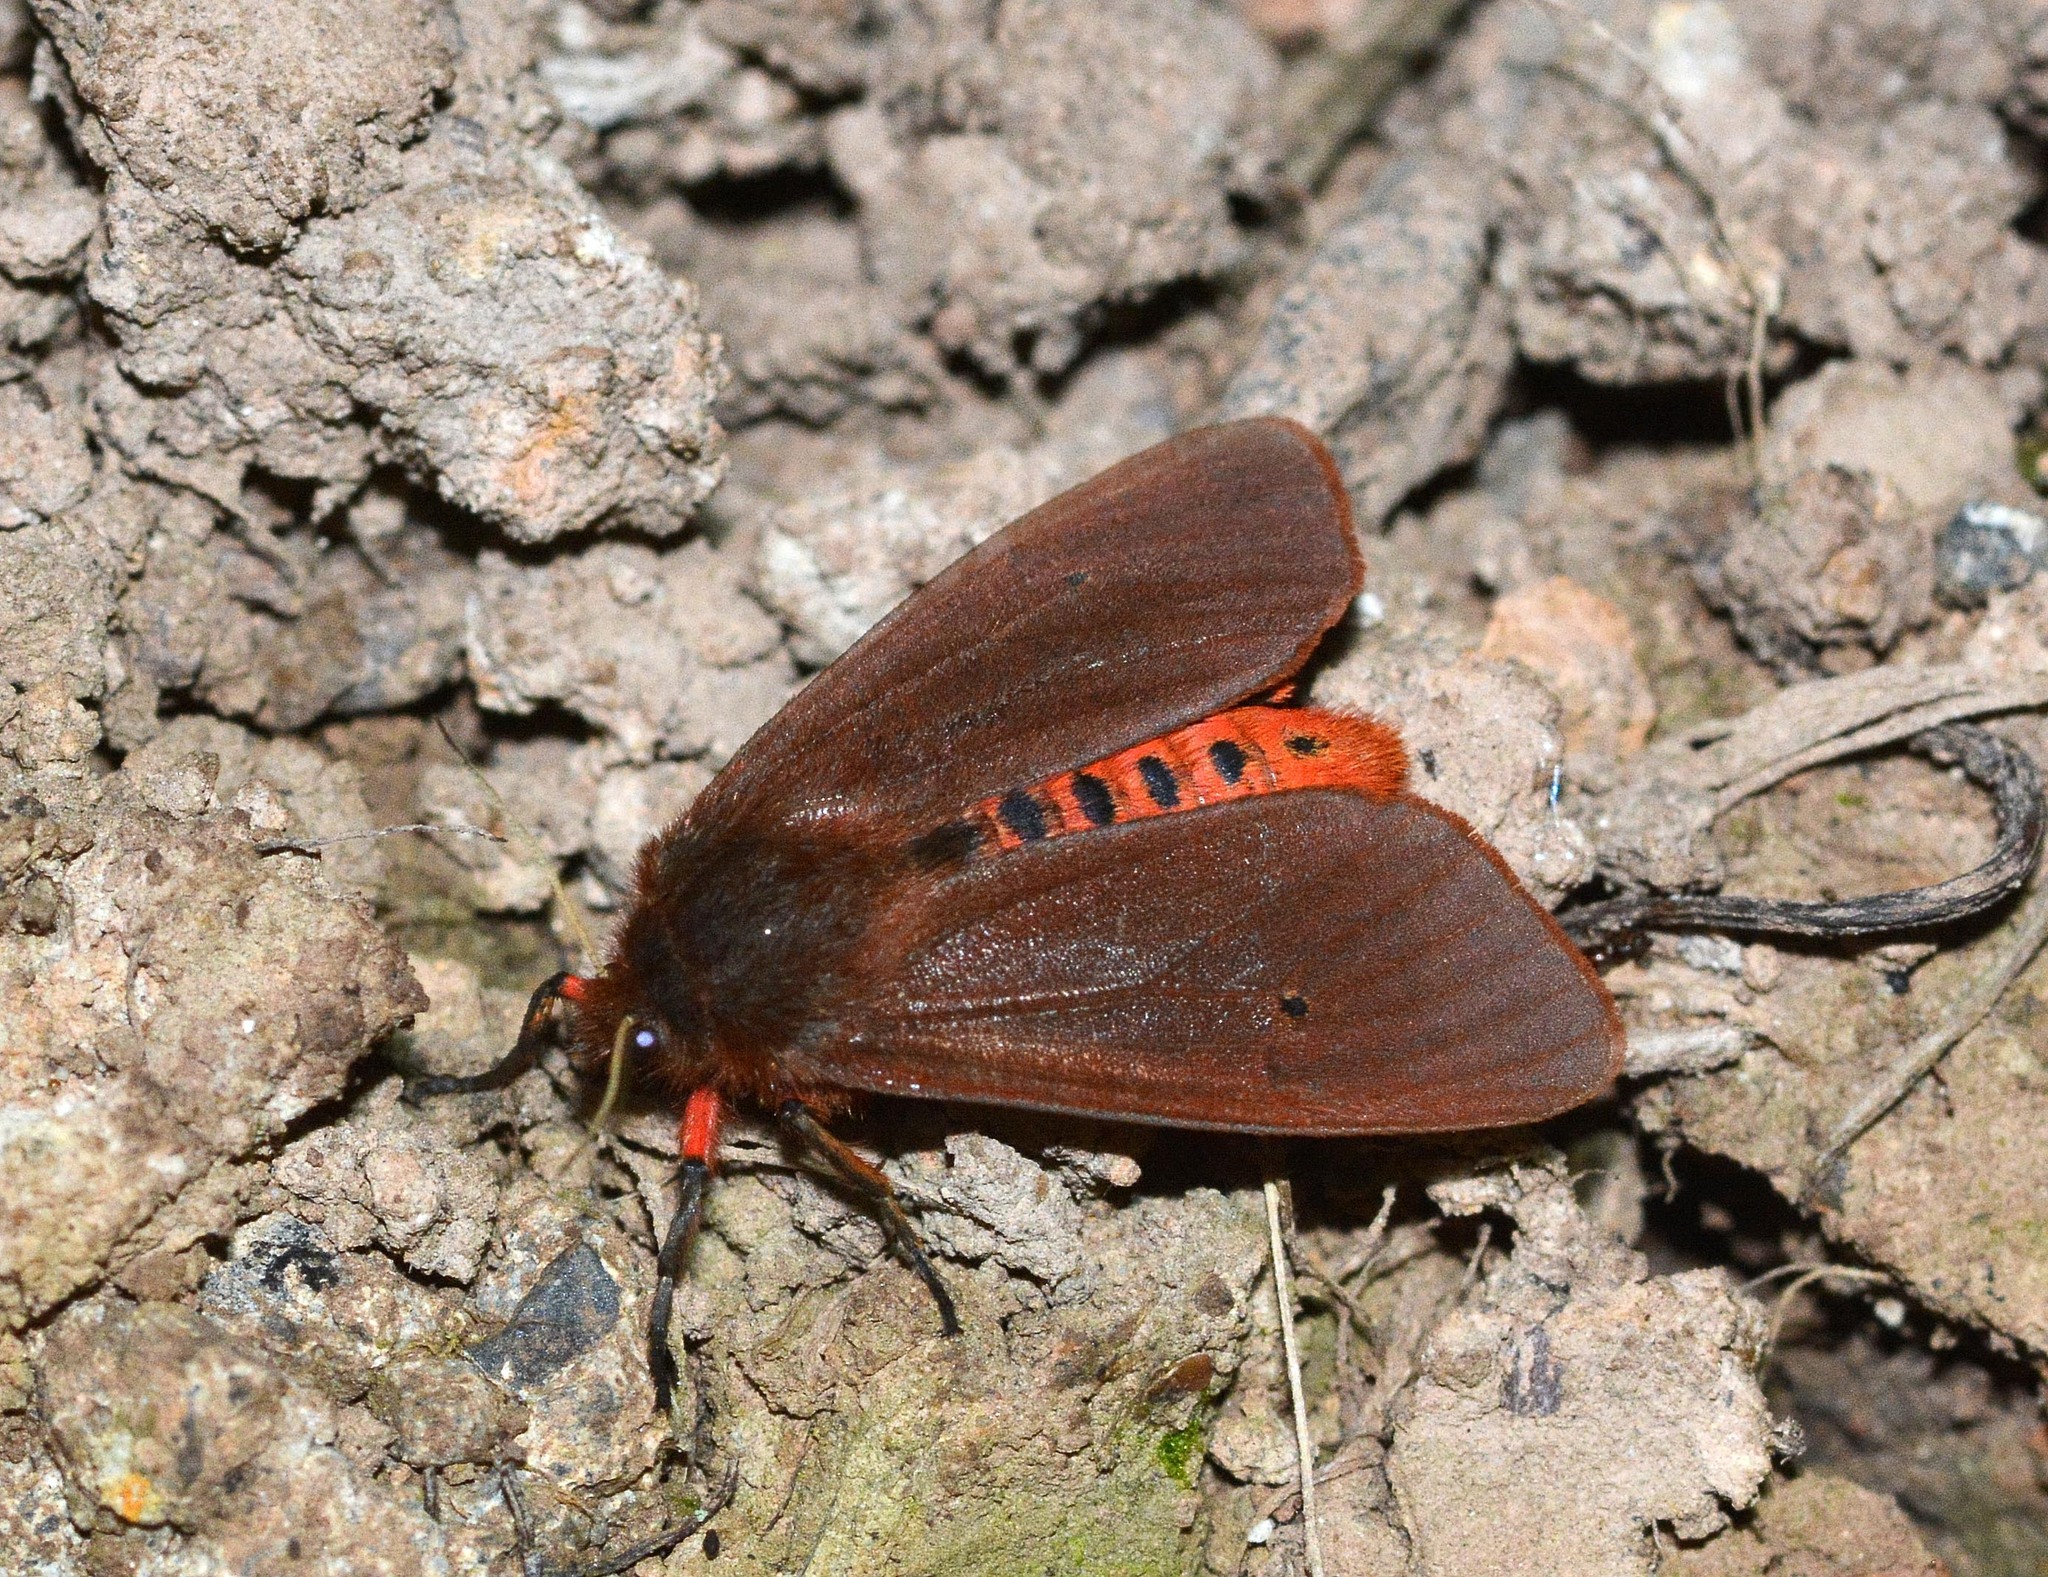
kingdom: Animalia
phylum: Arthropoda
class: Insecta
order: Lepidoptera
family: Erebidae
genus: Phragmatobia
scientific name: Phragmatobia fuliginosa
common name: Ruby tiger
